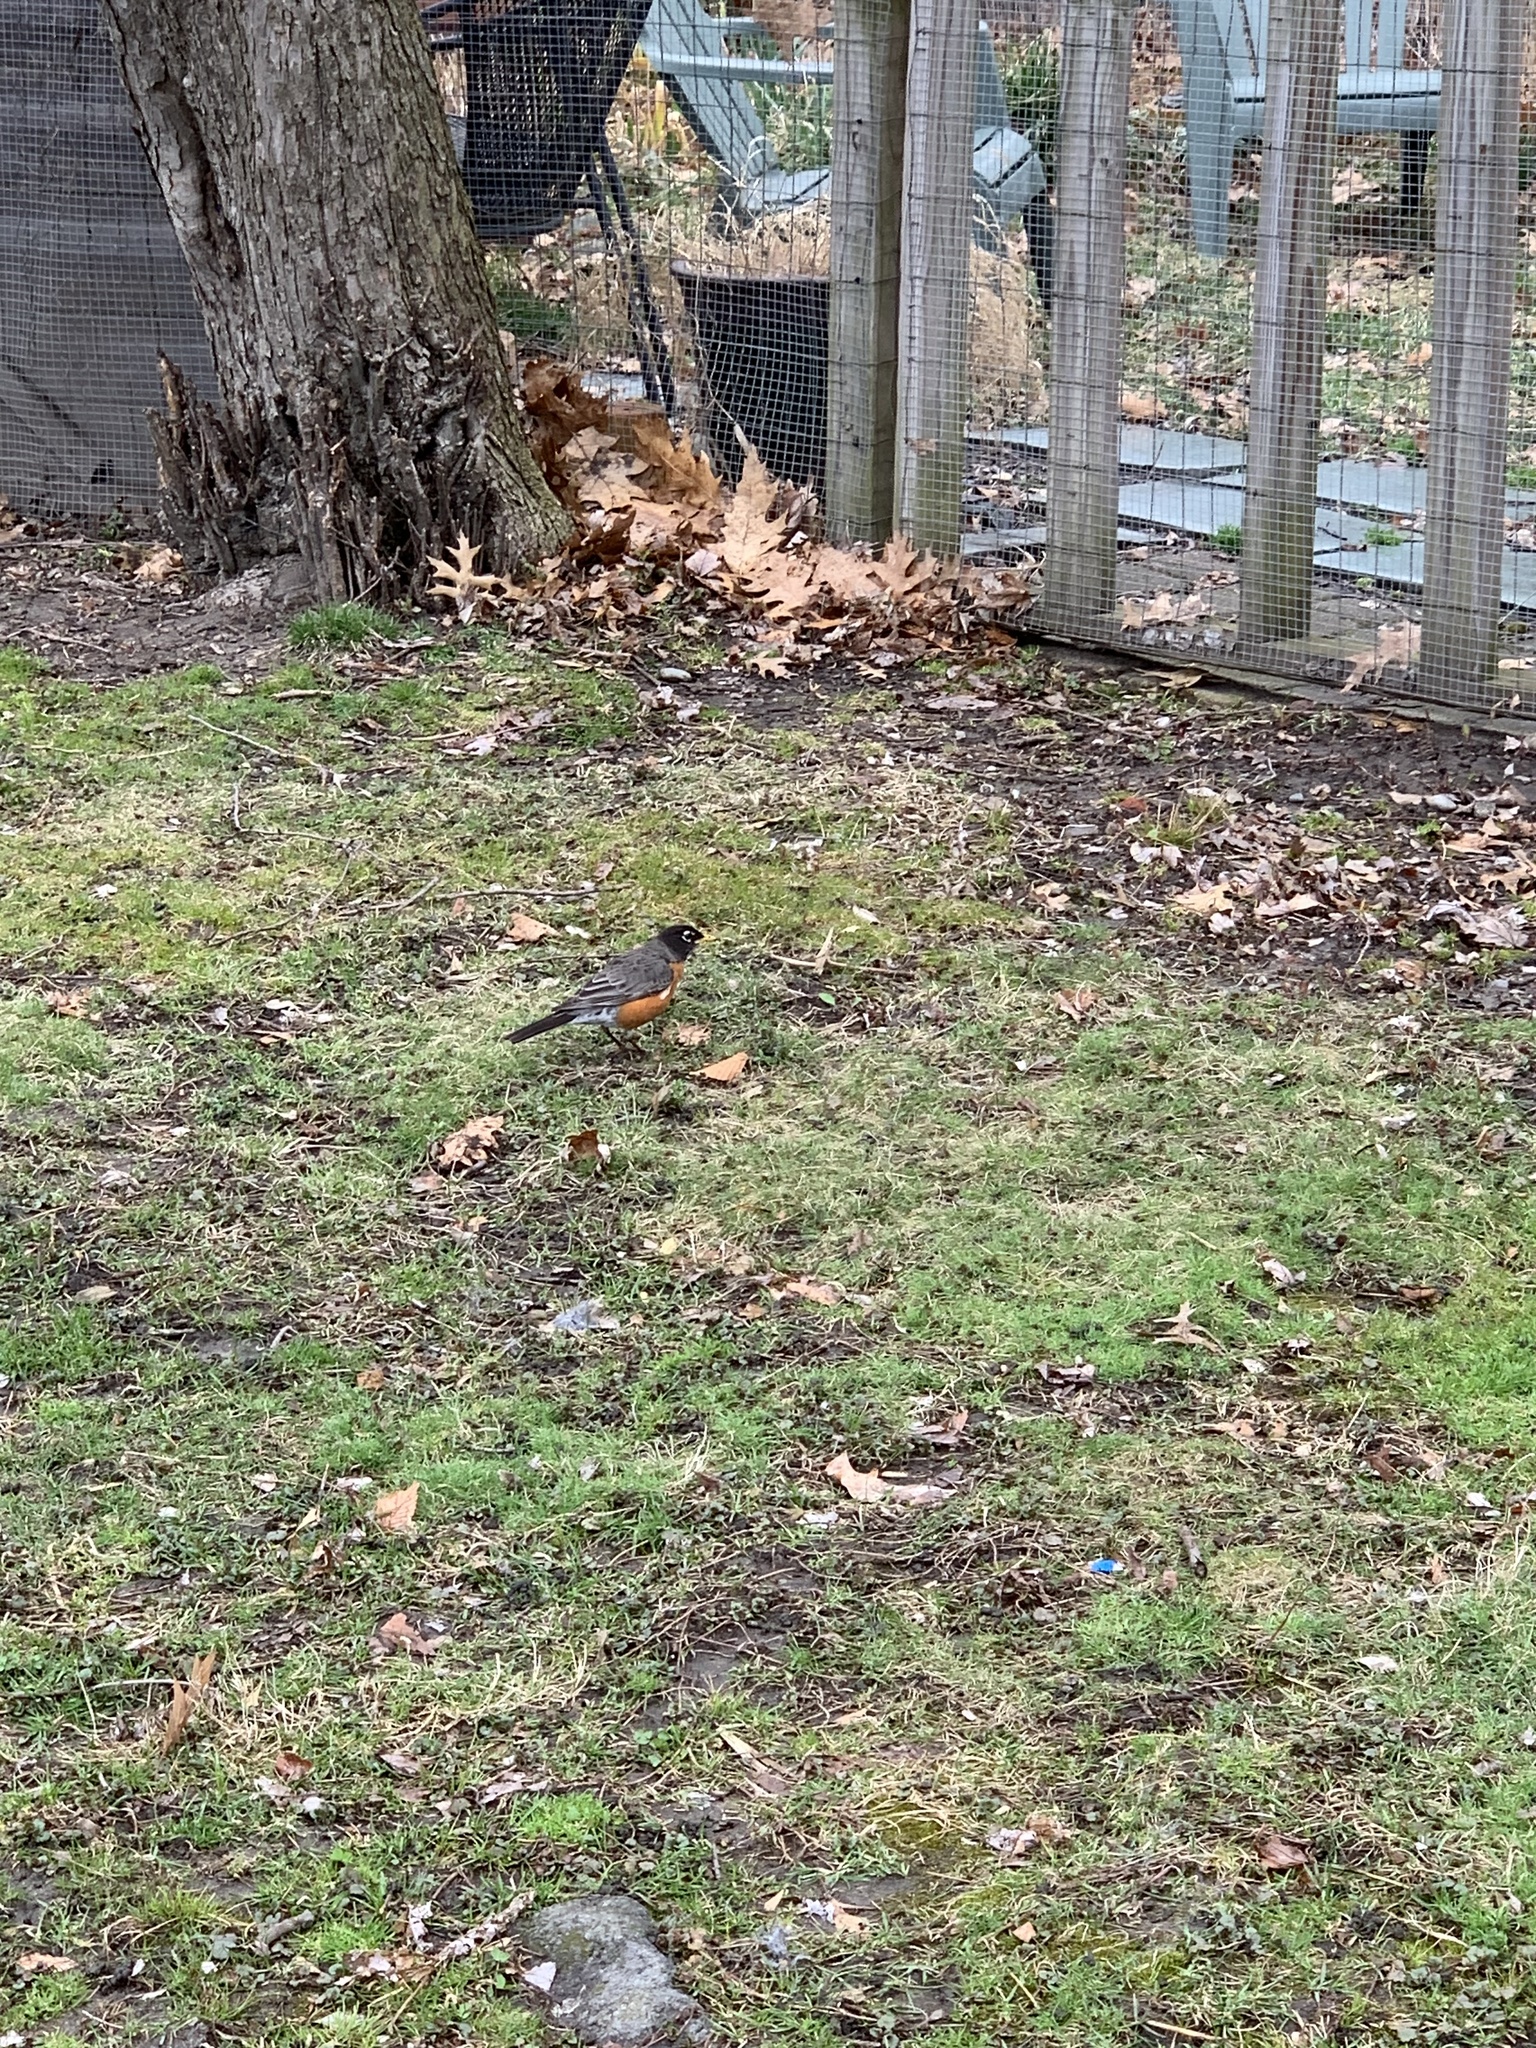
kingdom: Animalia
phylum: Chordata
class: Aves
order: Passeriformes
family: Turdidae
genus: Turdus
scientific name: Turdus migratorius
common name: American robin
